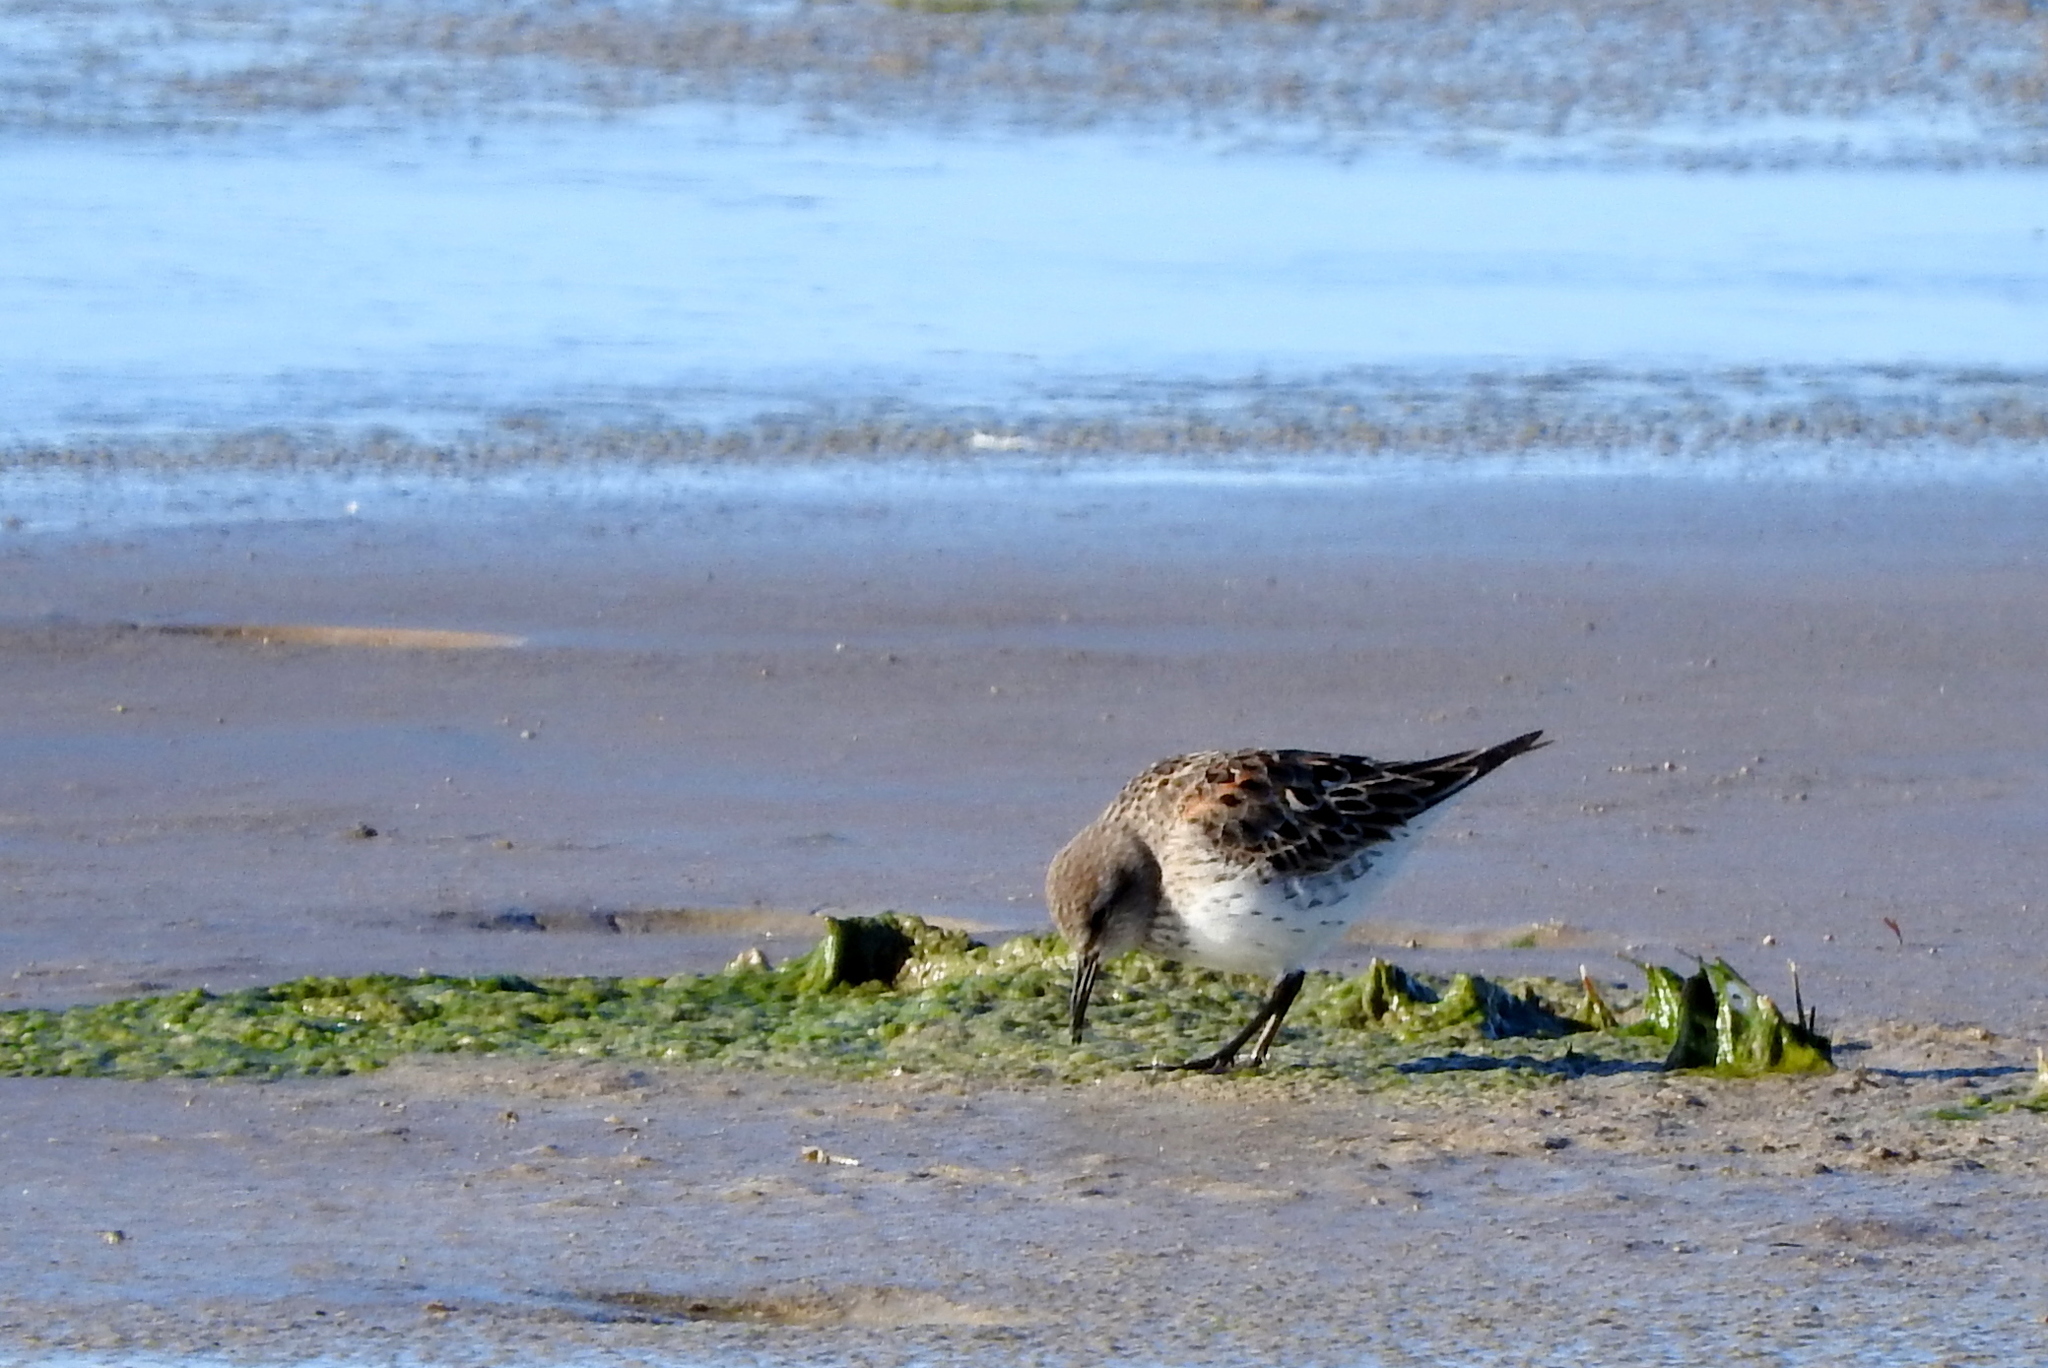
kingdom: Animalia
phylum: Chordata
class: Aves
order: Charadriiformes
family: Scolopacidae
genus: Calidris
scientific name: Calidris fuscicollis
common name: White-rumped sandpiper
